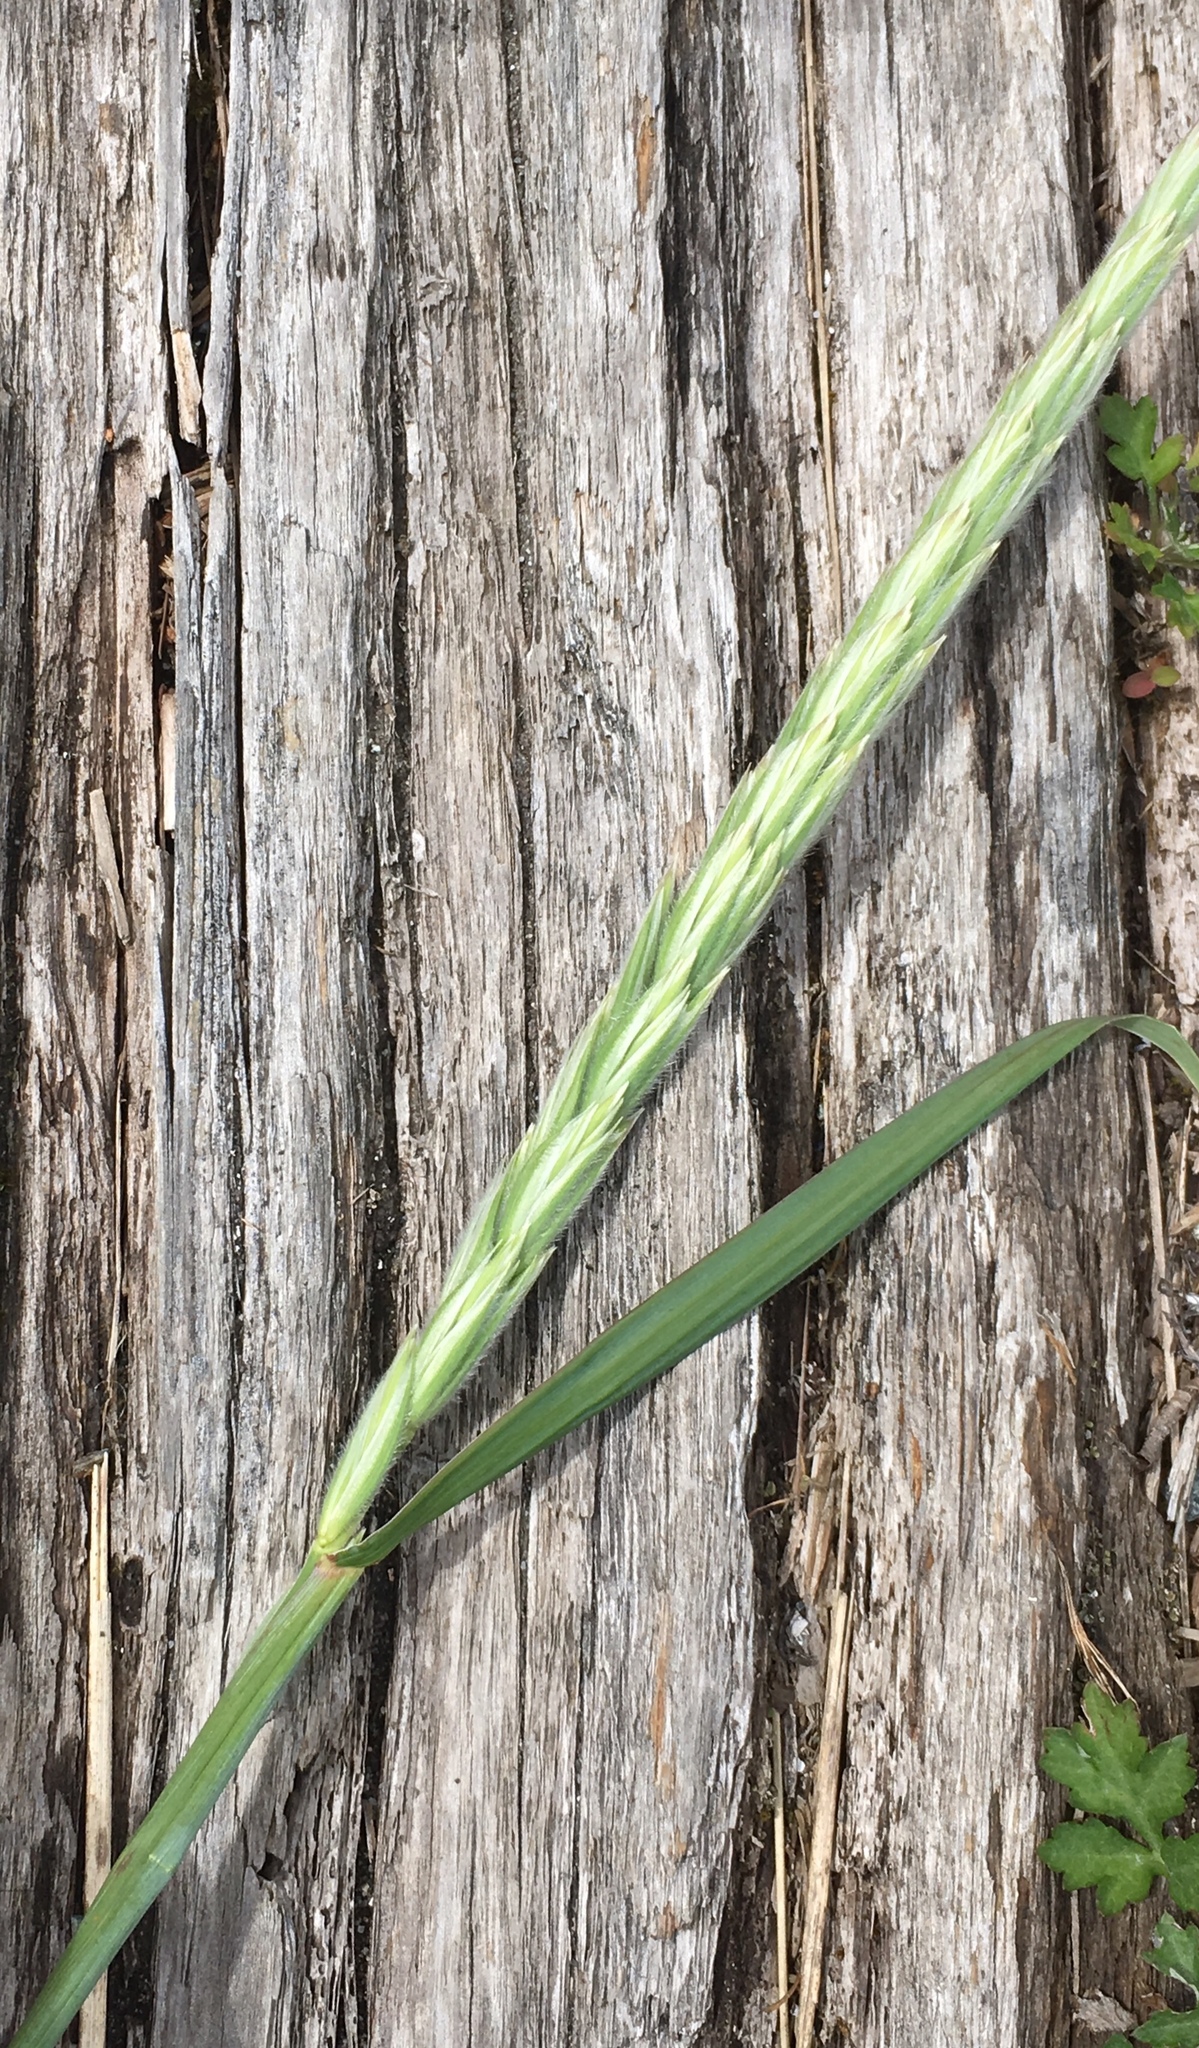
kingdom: Plantae
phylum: Tracheophyta
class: Liliopsida
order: Poales
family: Poaceae
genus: Leymus
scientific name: Leymus mollis
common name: American dune grass
